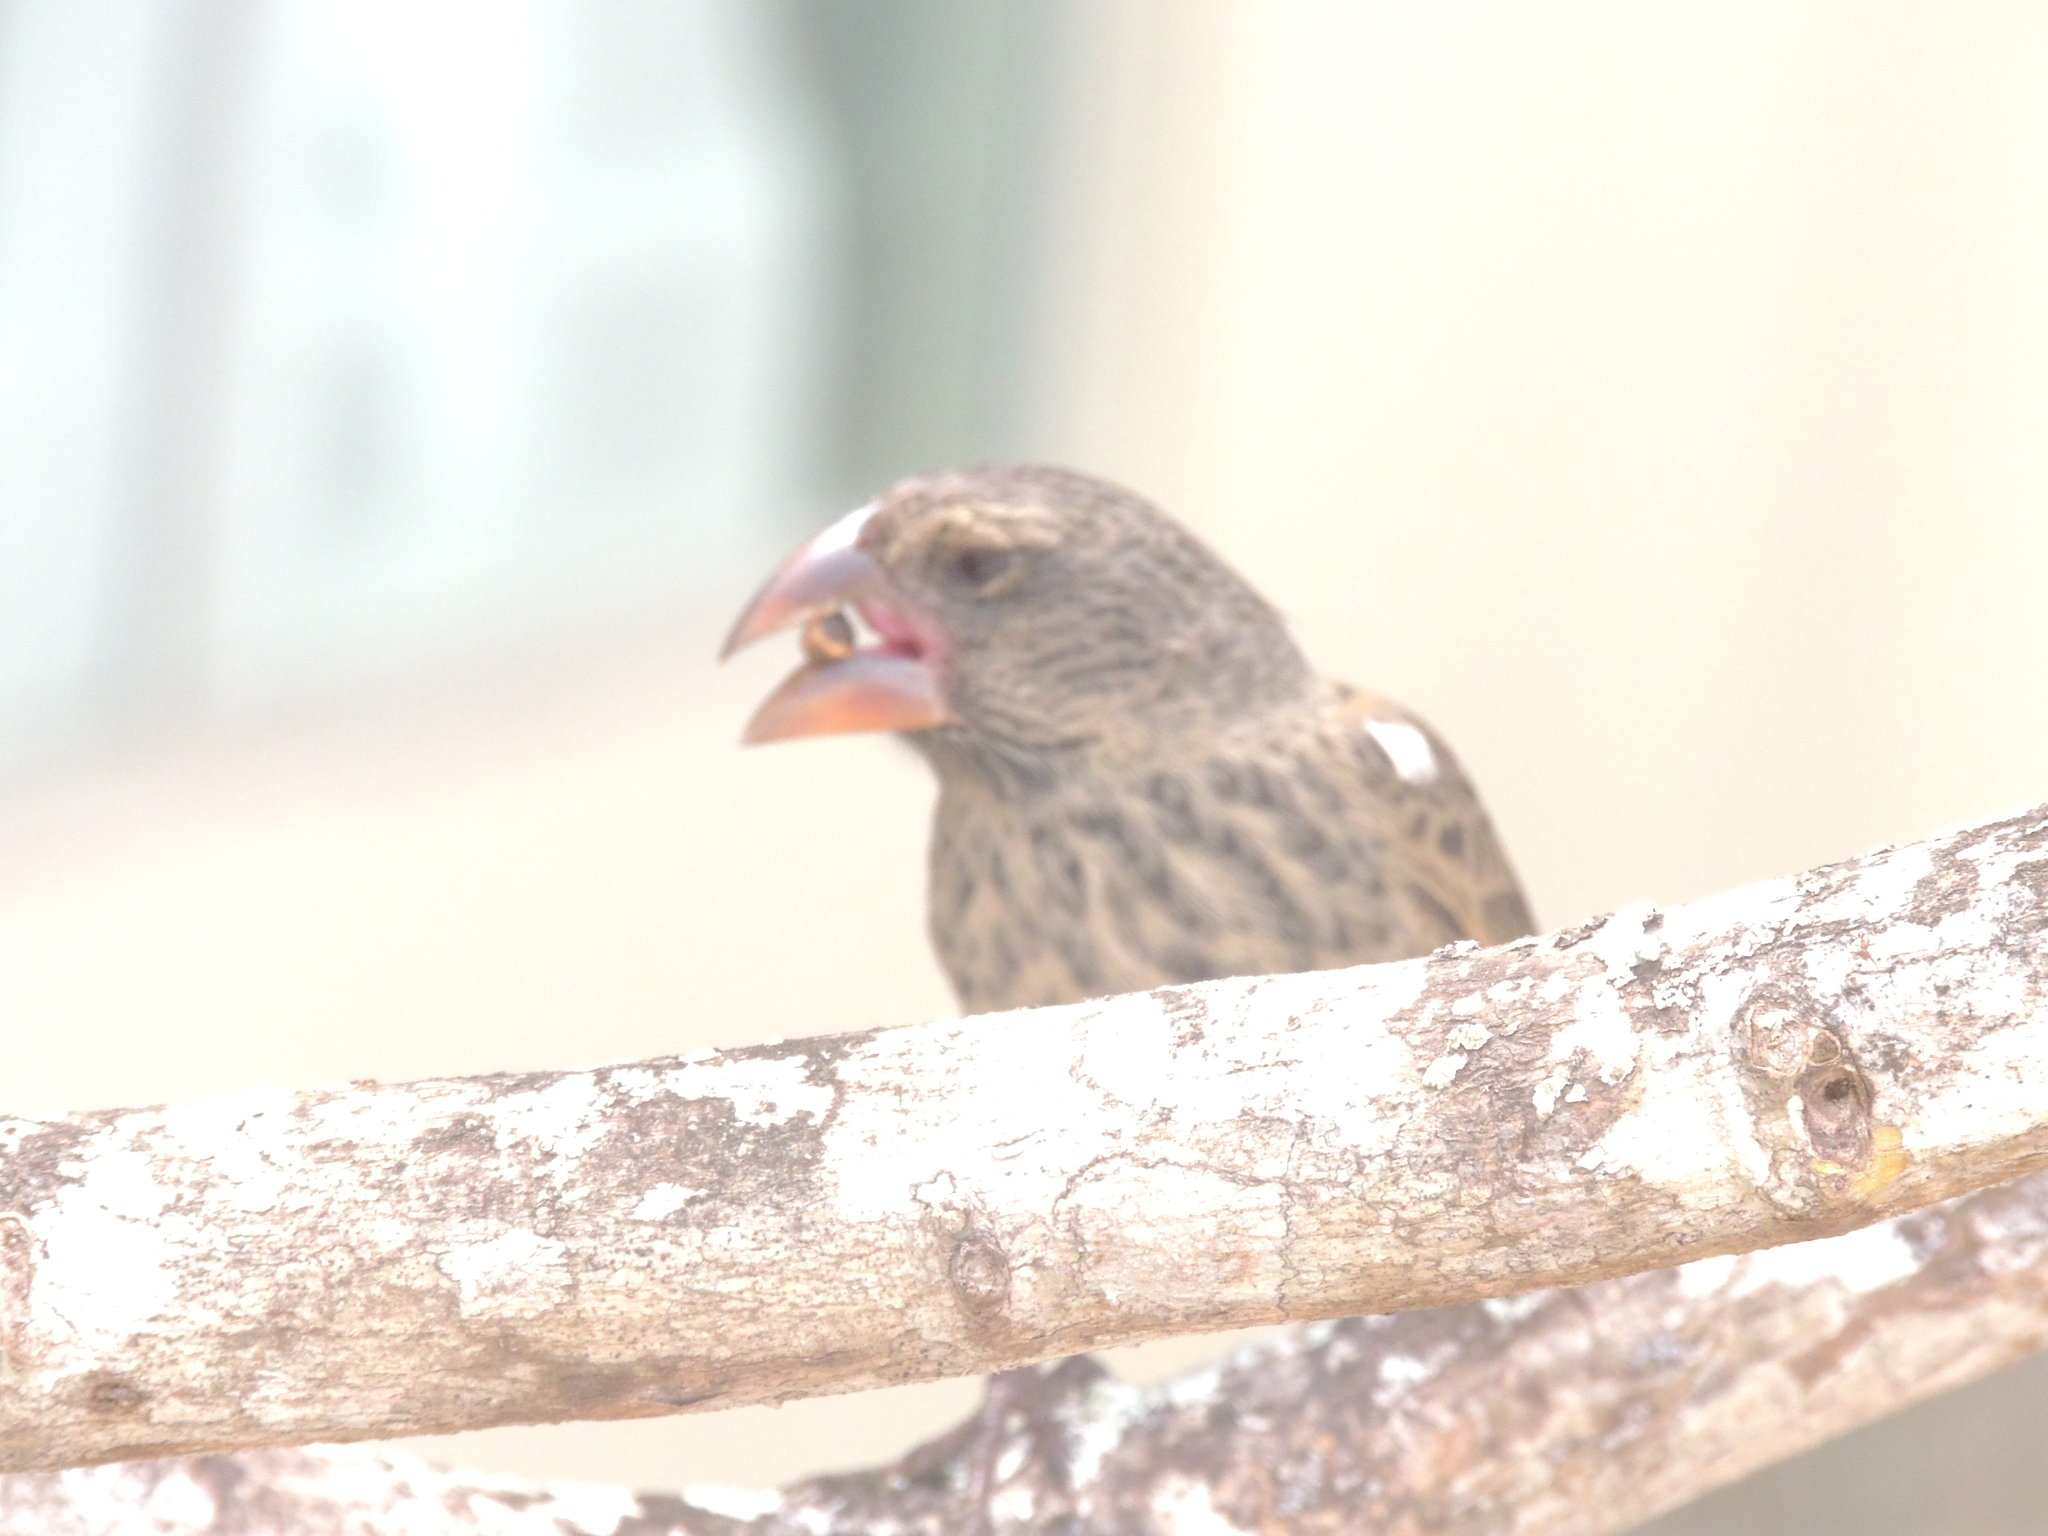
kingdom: Animalia
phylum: Chordata
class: Aves
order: Passeriformes
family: Thraupidae
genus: Geospiza
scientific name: Geospiza fortis
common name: Medium ground finch
